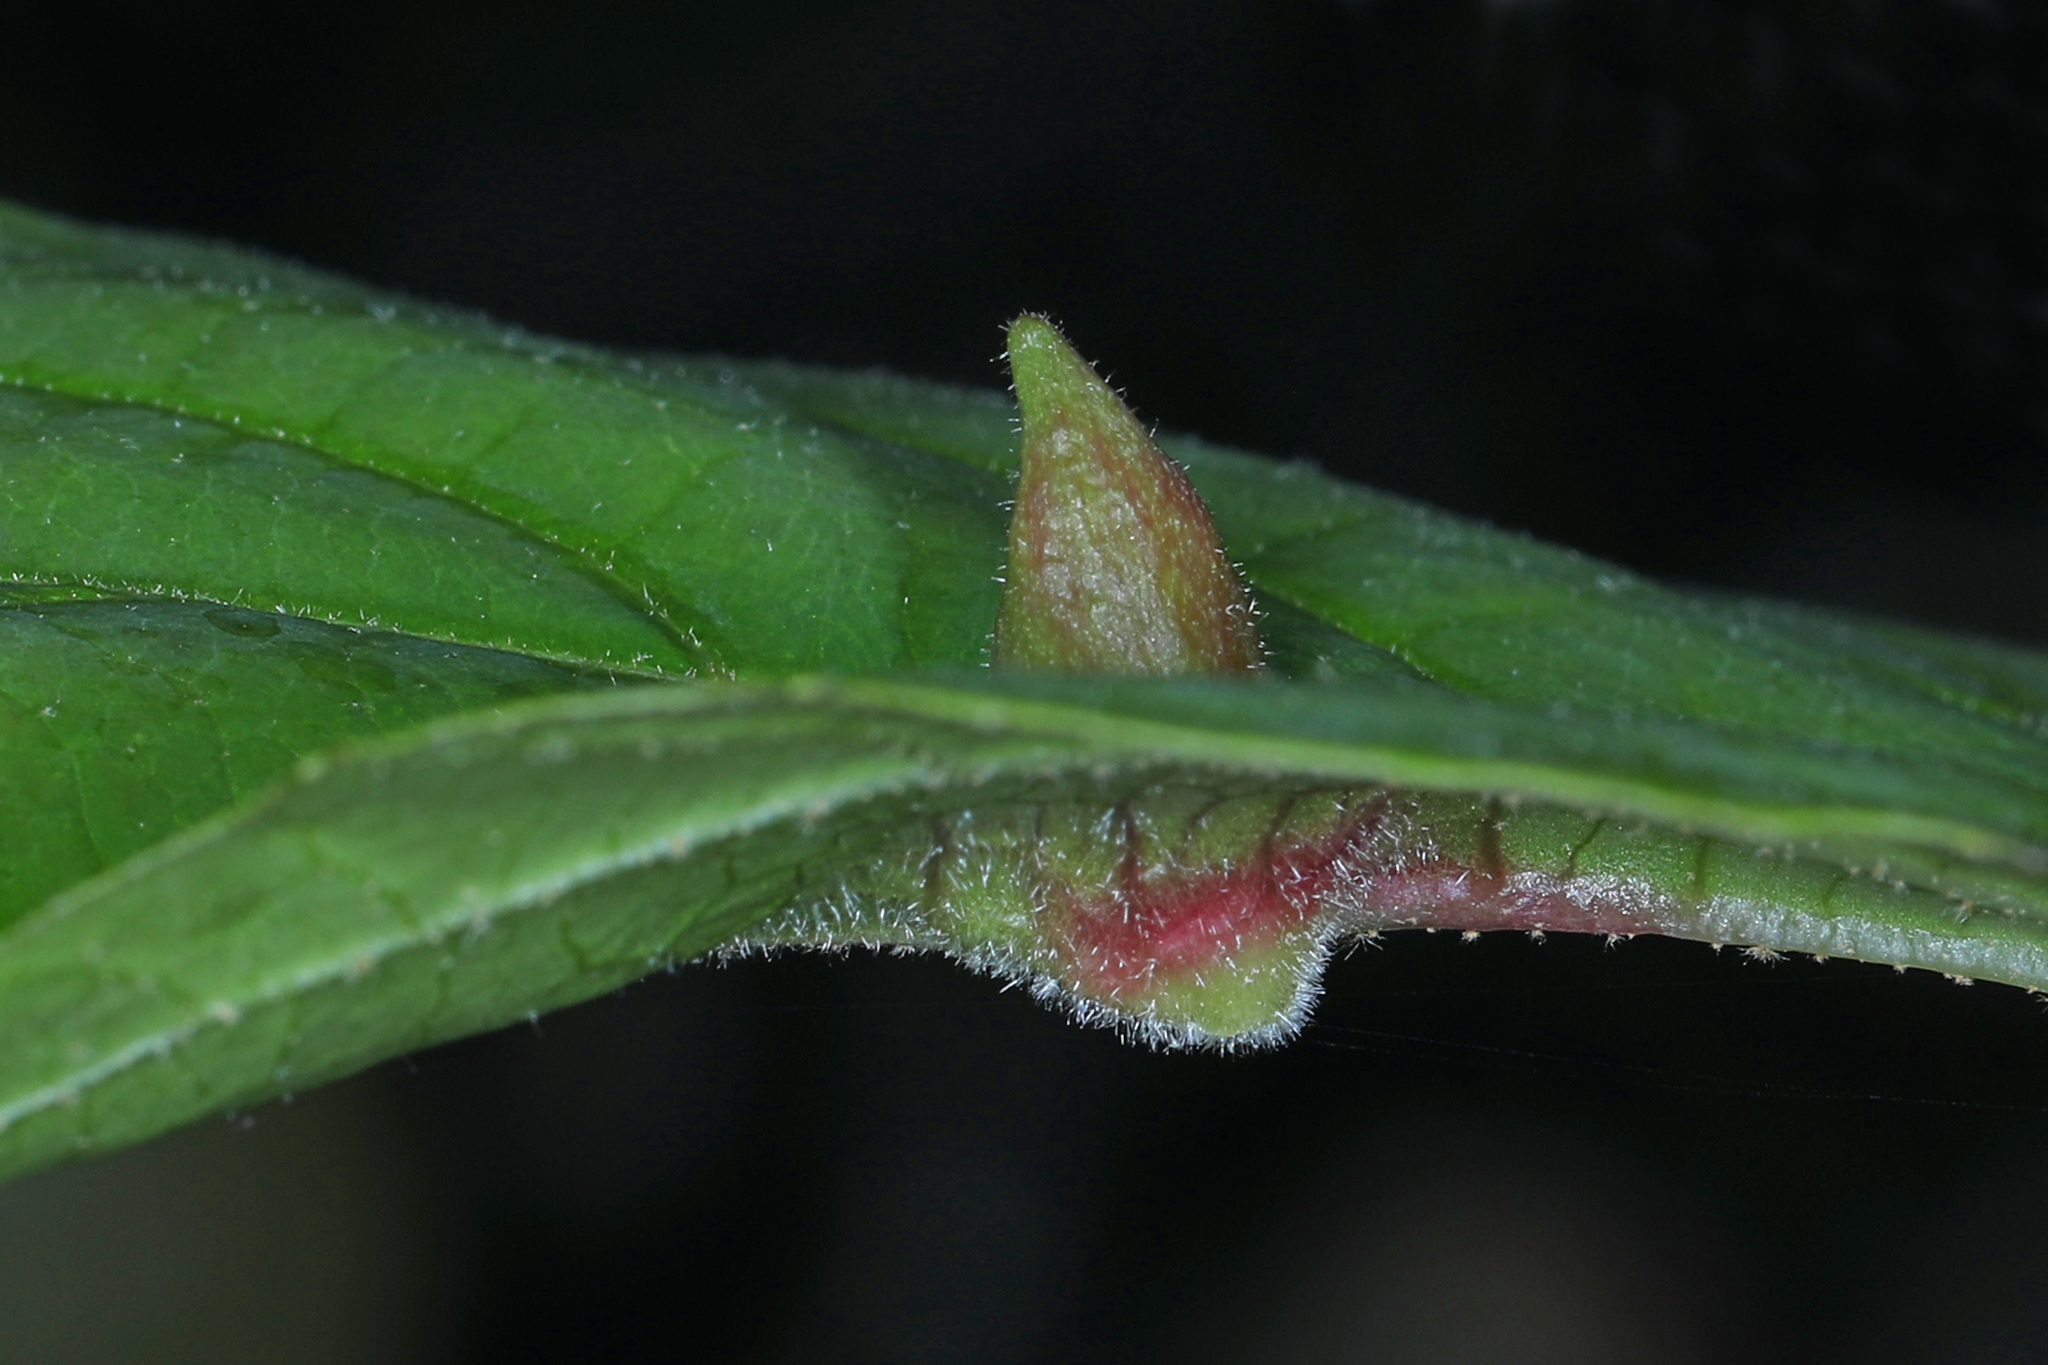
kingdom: Animalia
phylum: Arthropoda
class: Insecta
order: Hemiptera
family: Aphididae
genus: Hormaphis
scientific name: Hormaphis hamamelidis
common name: Witch-hazel cone gall aphid
